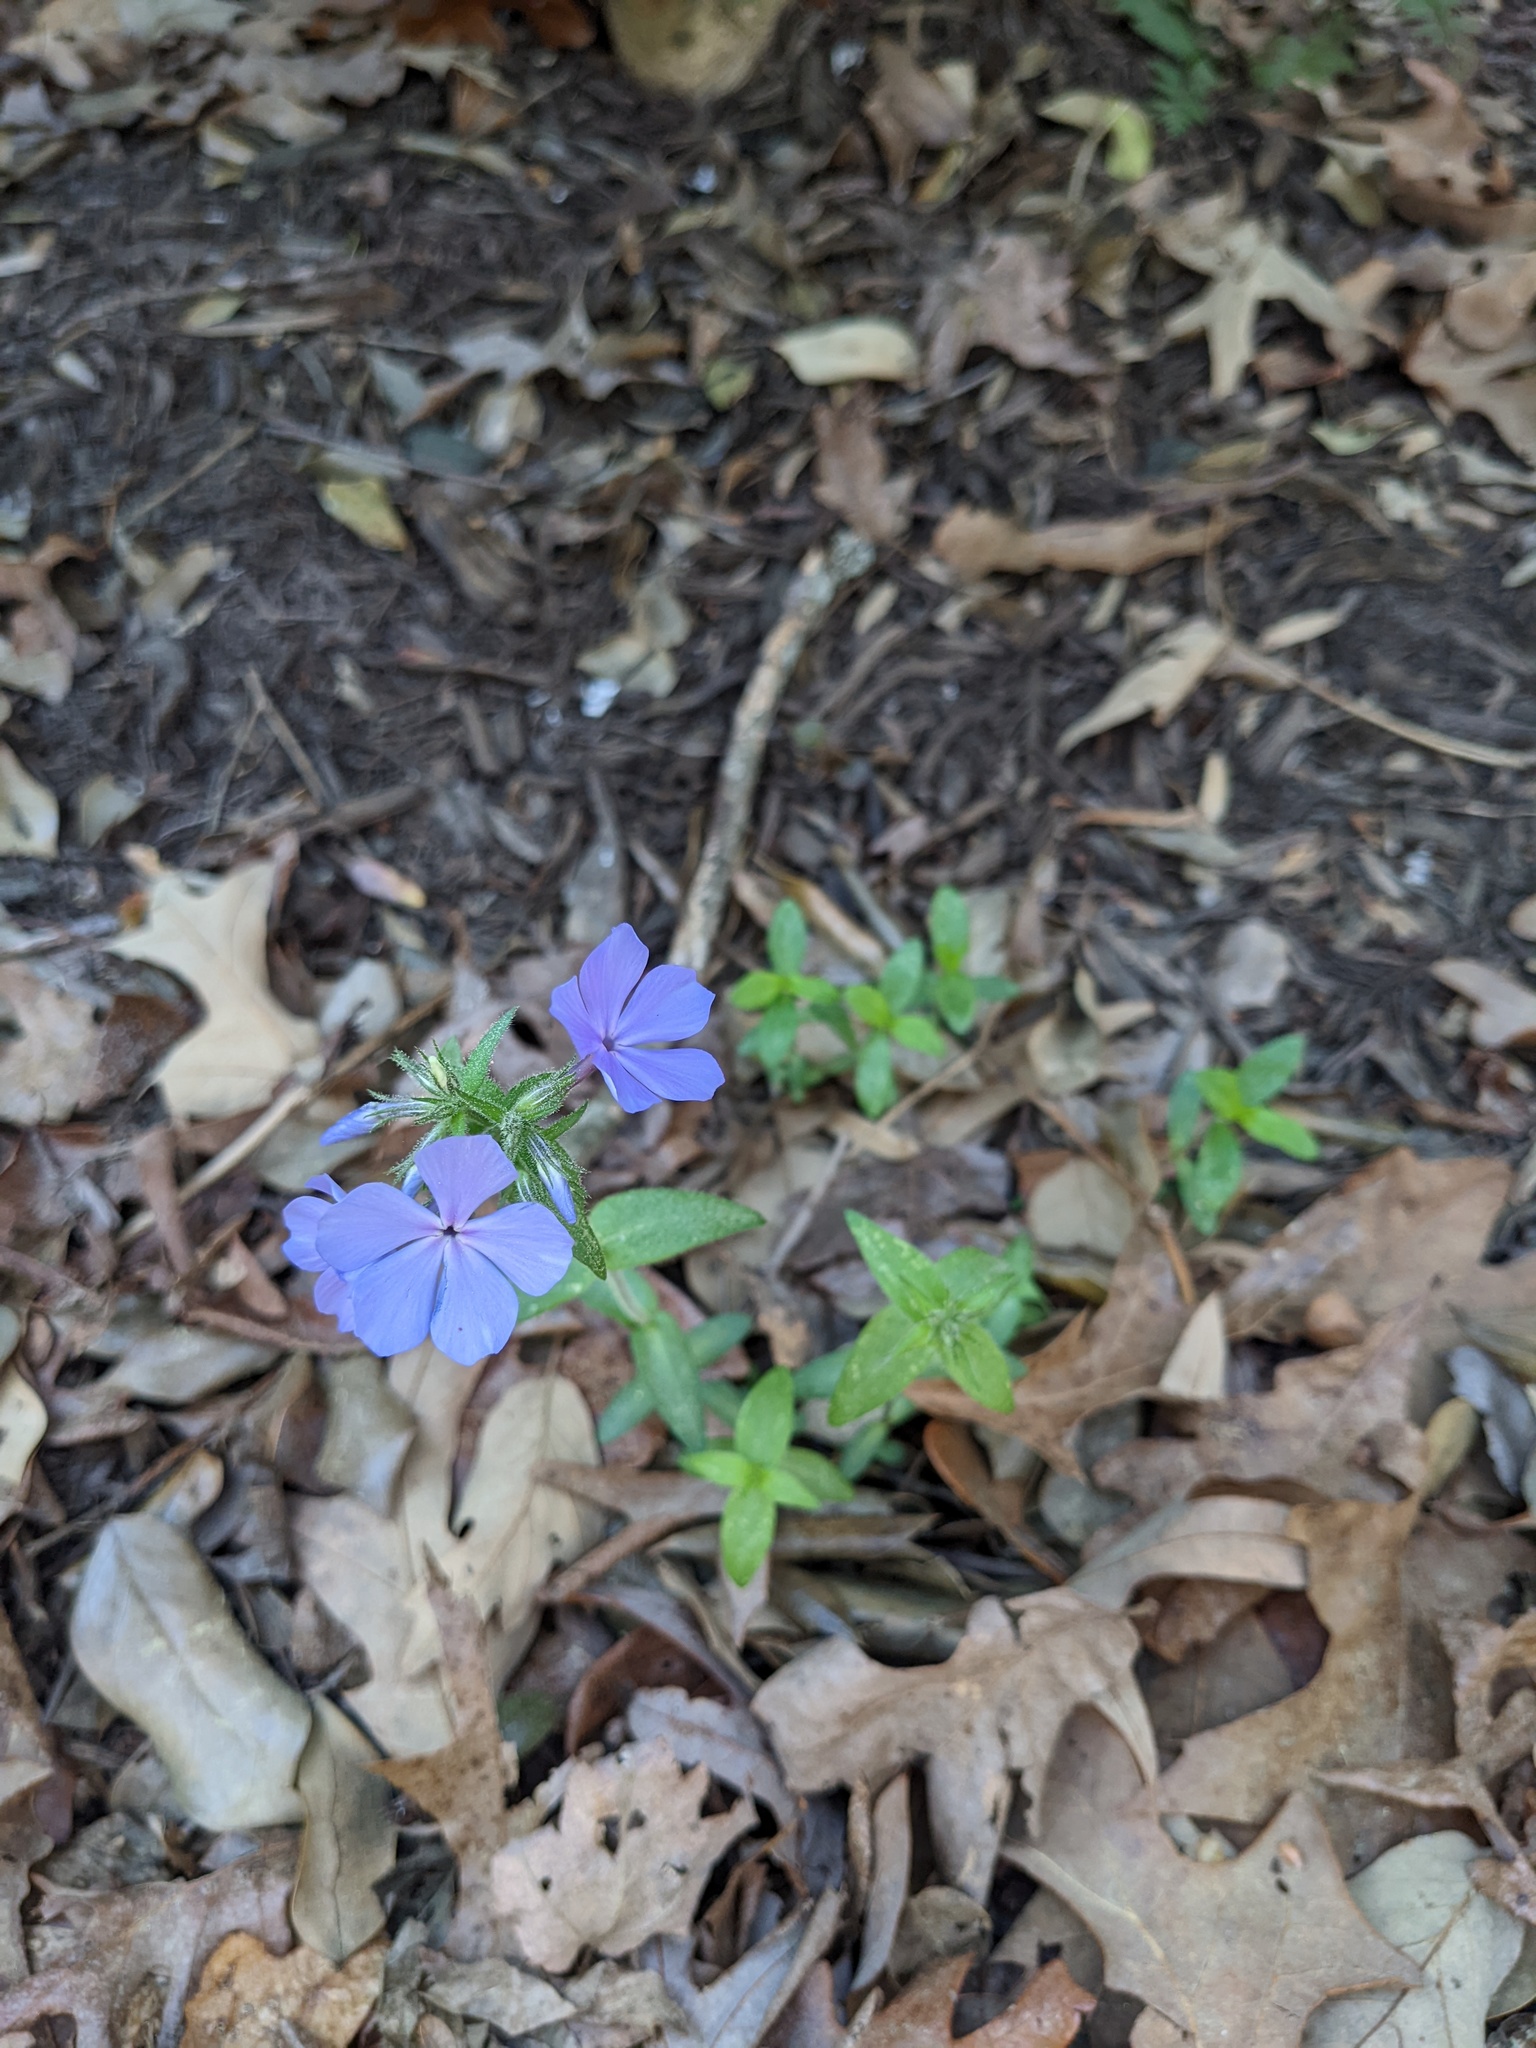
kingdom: Plantae
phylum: Tracheophyta
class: Magnoliopsida
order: Ericales
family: Polemoniaceae
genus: Phlox
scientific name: Phlox divaricata
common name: Blue phlox
